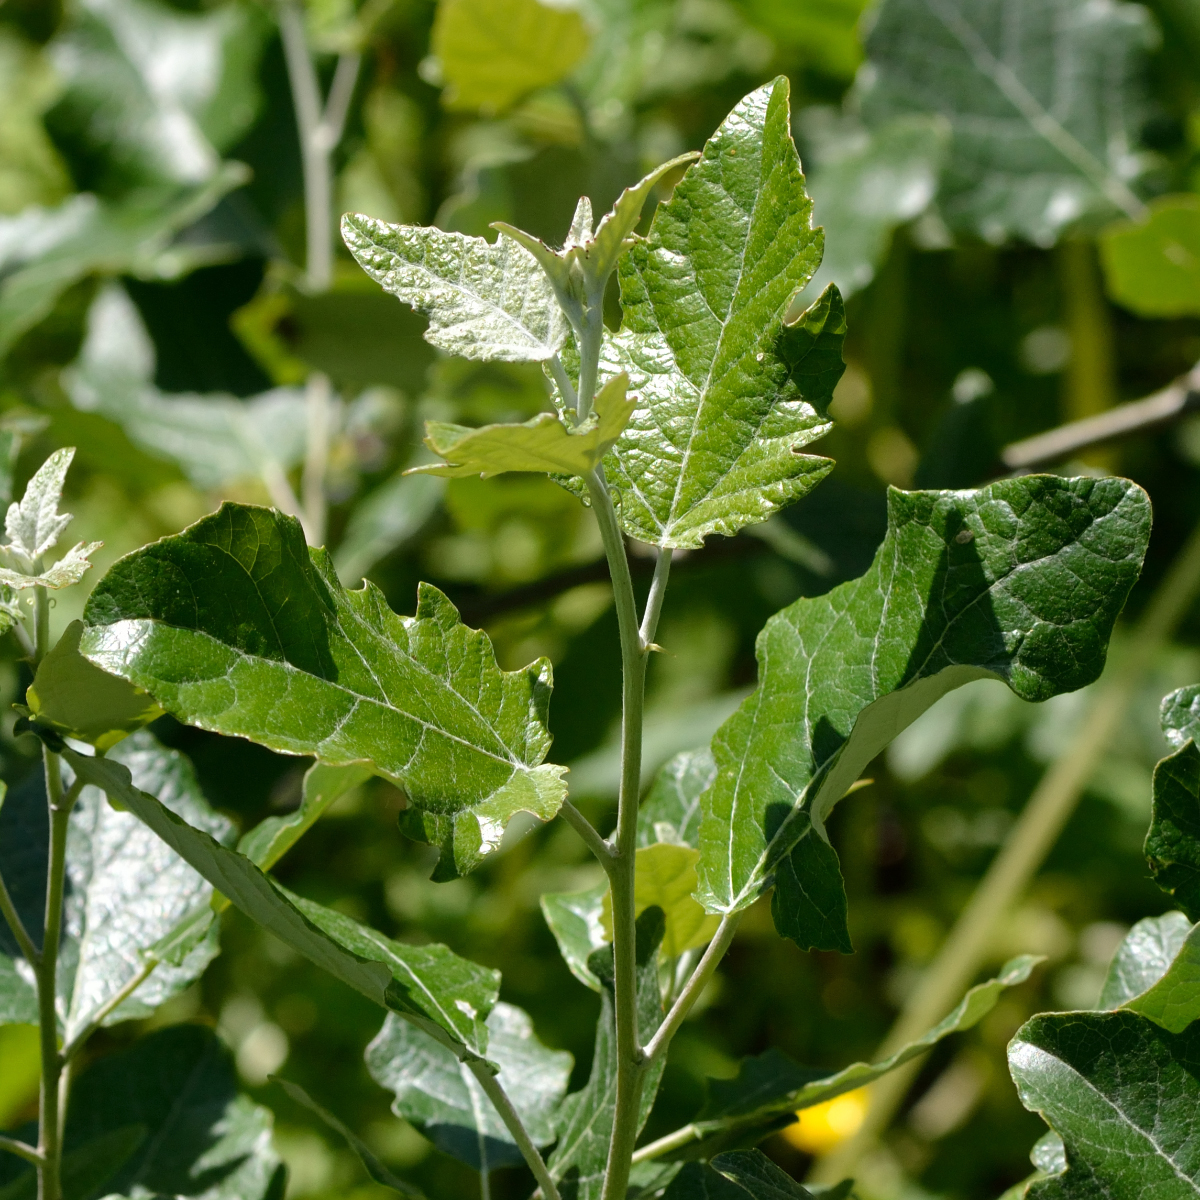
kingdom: Plantae
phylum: Tracheophyta
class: Magnoliopsida
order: Malpighiales
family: Salicaceae
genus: Populus
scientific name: Populus alba
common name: White poplar
